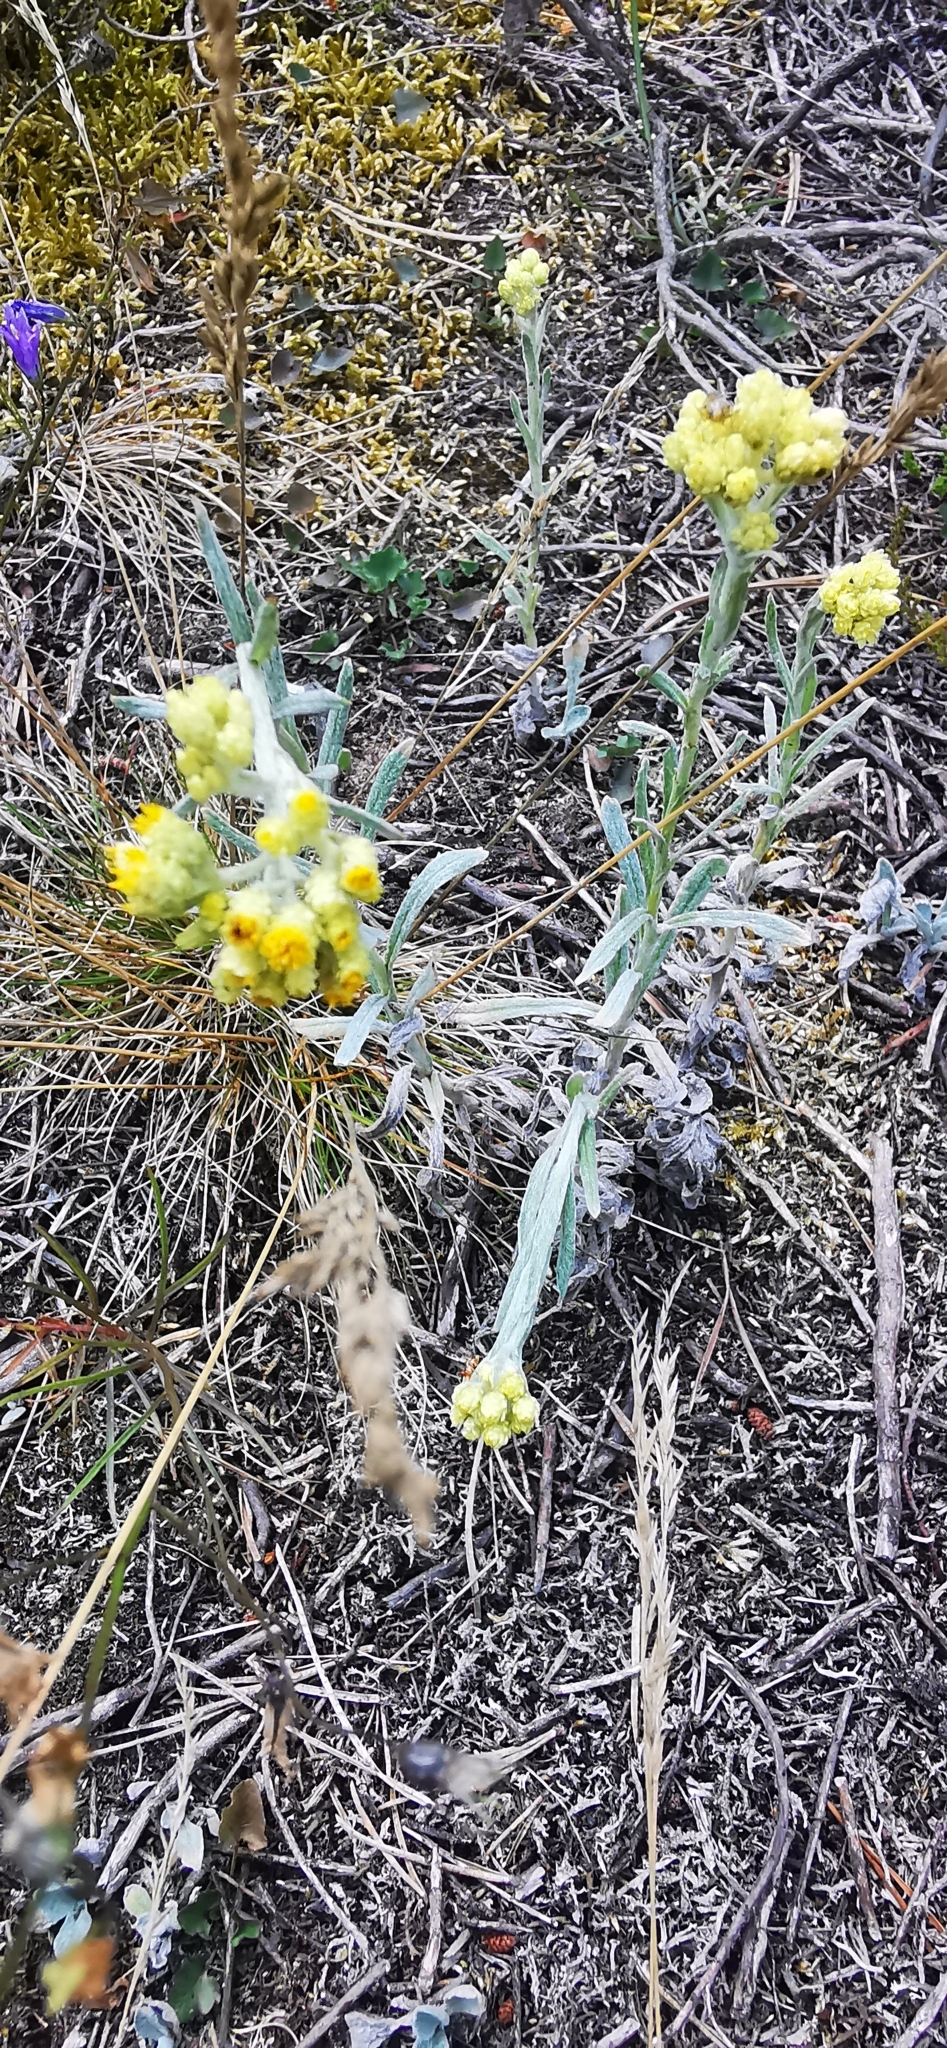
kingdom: Plantae
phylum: Tracheophyta
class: Magnoliopsida
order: Asterales
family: Asteraceae
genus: Helichrysum
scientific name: Helichrysum arenarium
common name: Strawflower
